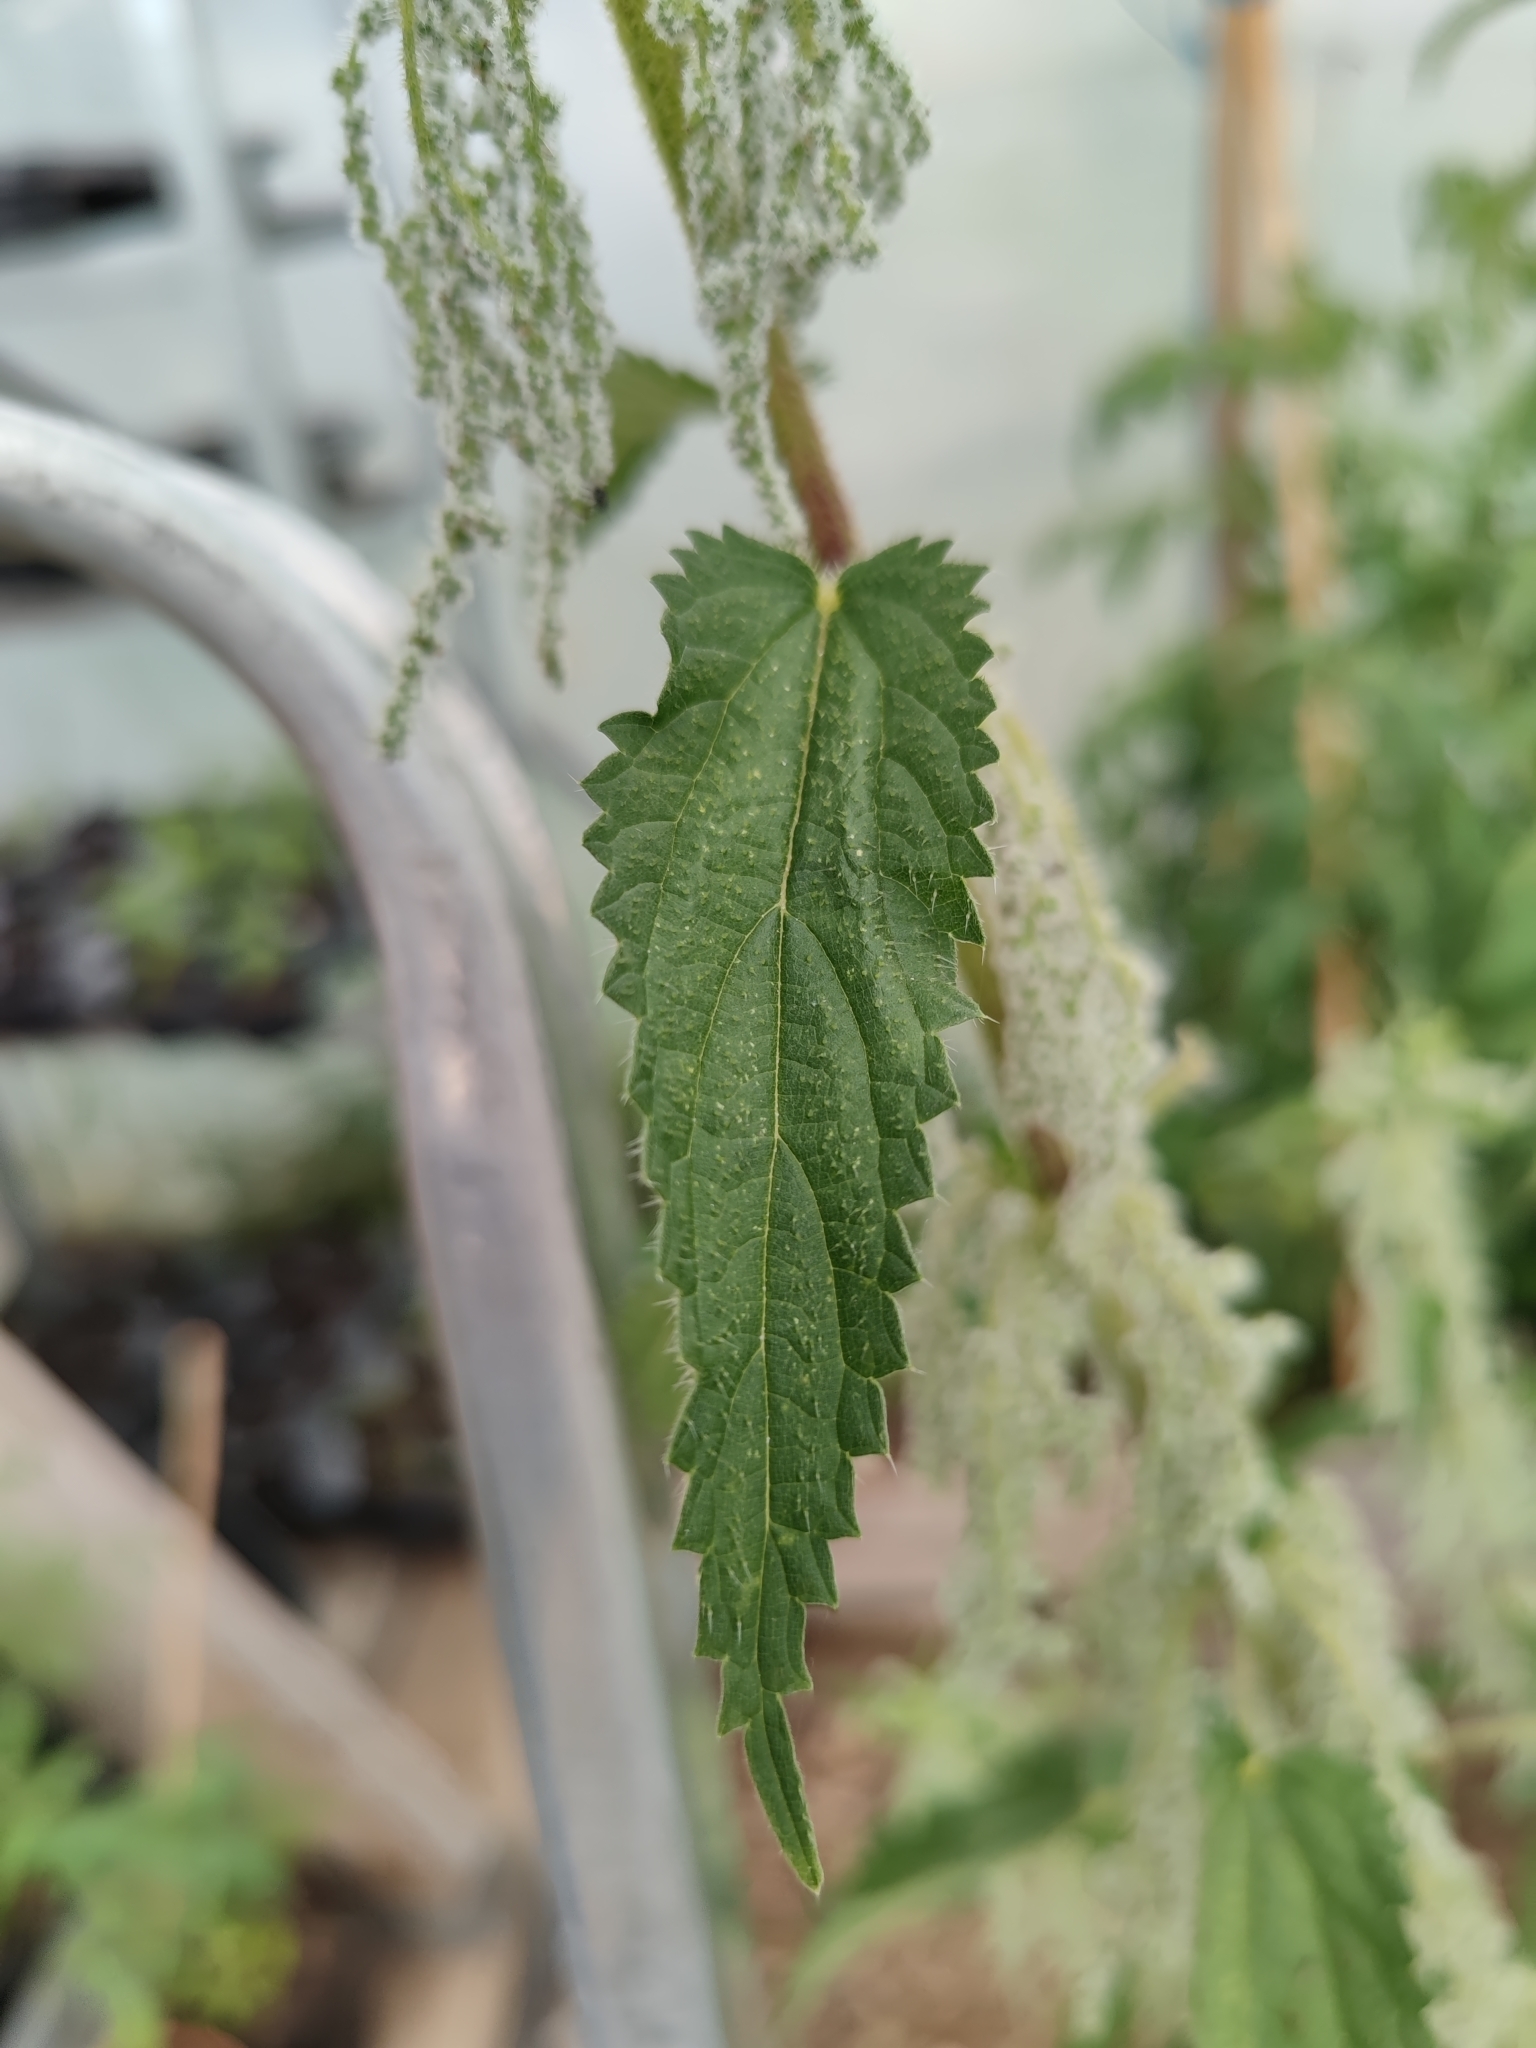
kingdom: Plantae
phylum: Tracheophyta
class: Magnoliopsida
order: Rosales
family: Urticaceae
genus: Urtica
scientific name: Urtica dioica
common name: Common nettle
